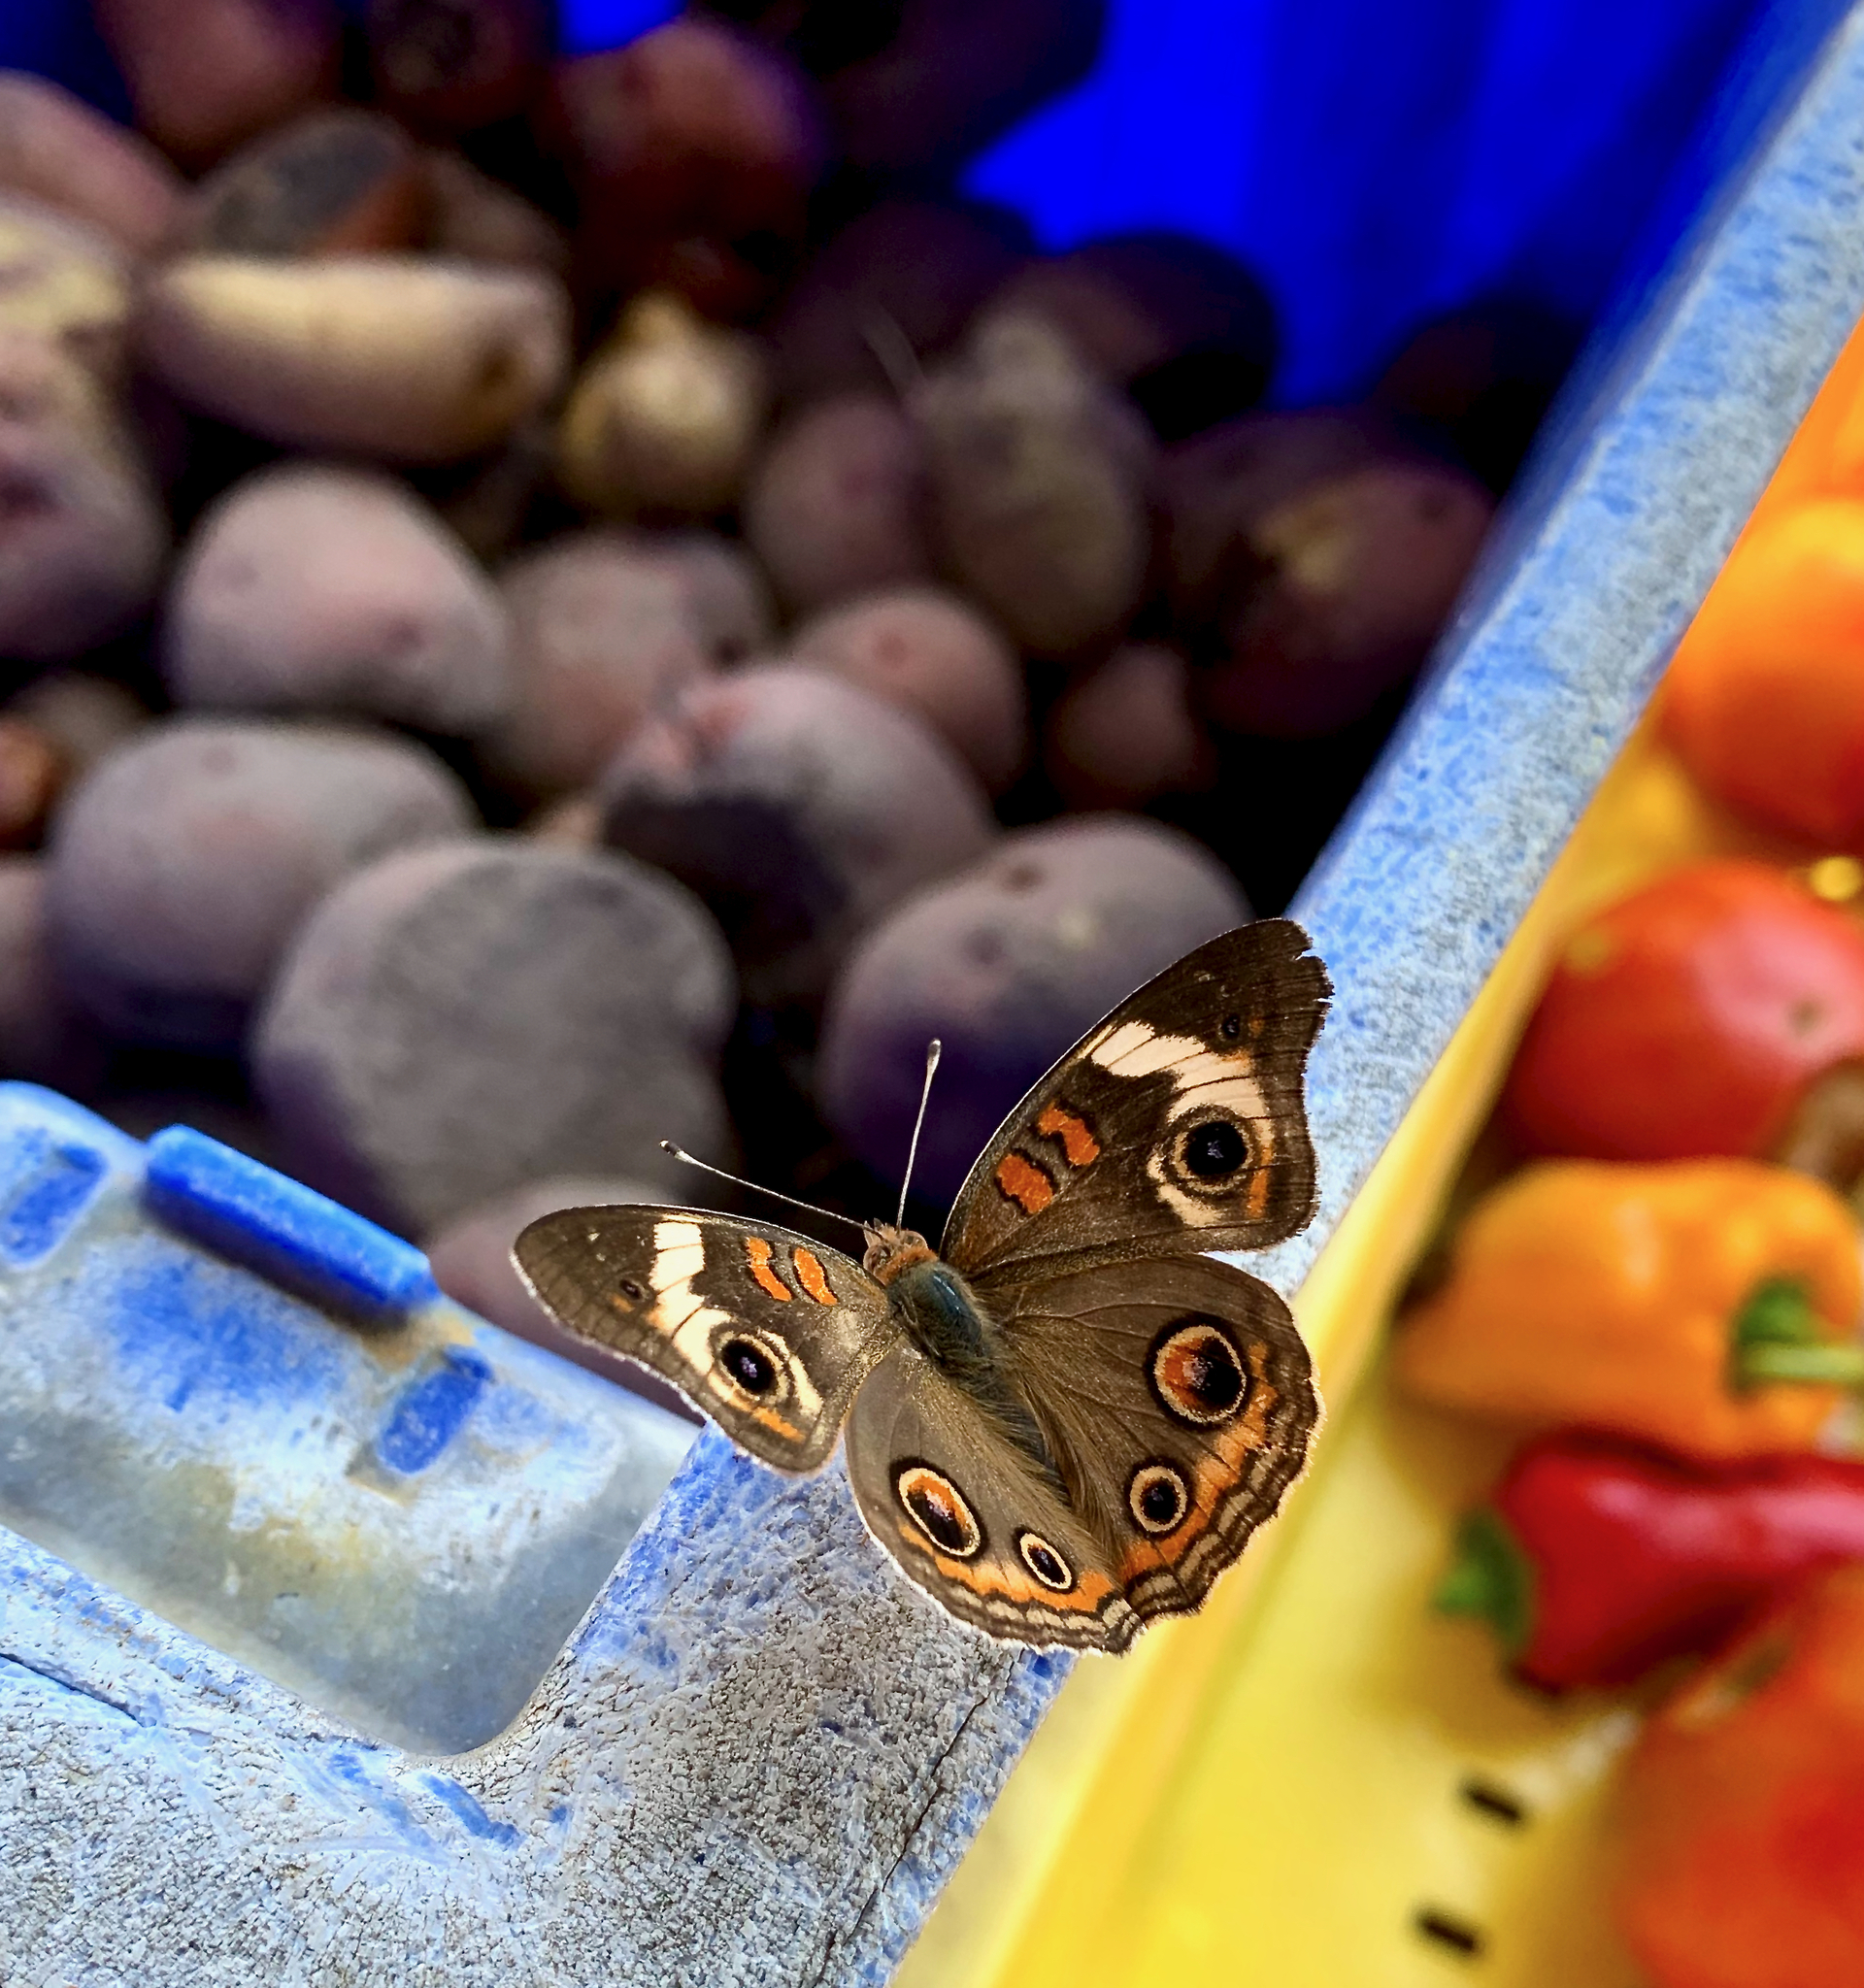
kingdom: Animalia
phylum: Arthropoda
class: Insecta
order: Lepidoptera
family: Nymphalidae
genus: Junonia
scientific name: Junonia coenia
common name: Common buckeye
